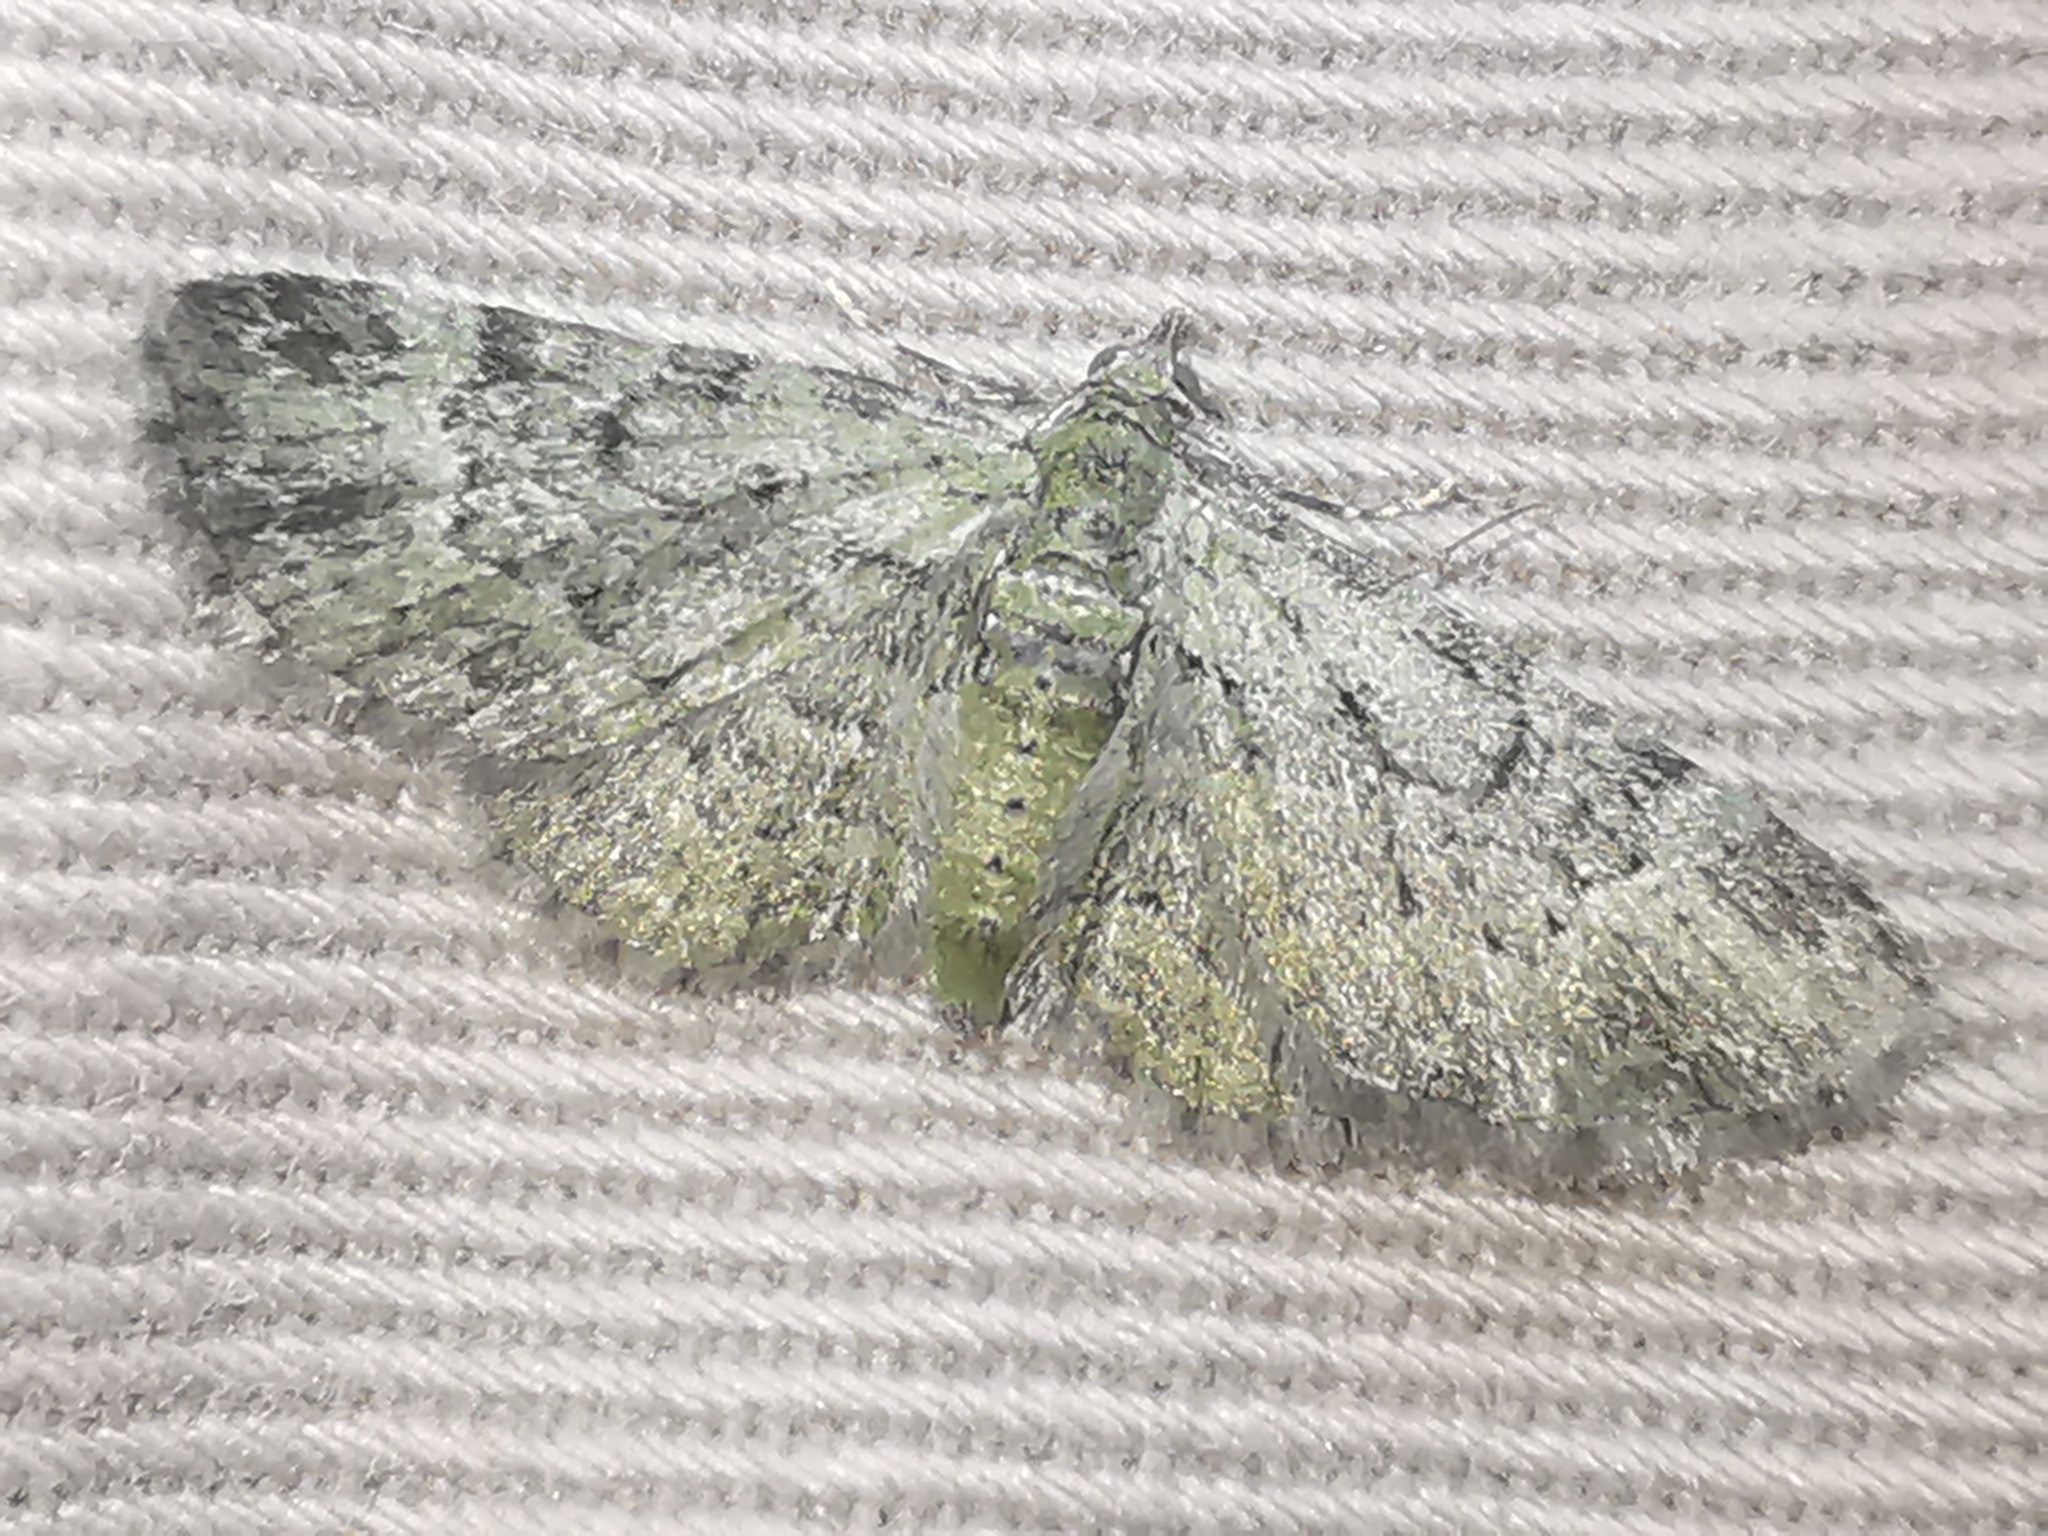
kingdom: Animalia
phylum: Arthropoda
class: Insecta
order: Lepidoptera
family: Geometridae
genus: Pasiphila
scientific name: Pasiphila rectangulata
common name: Green pug
